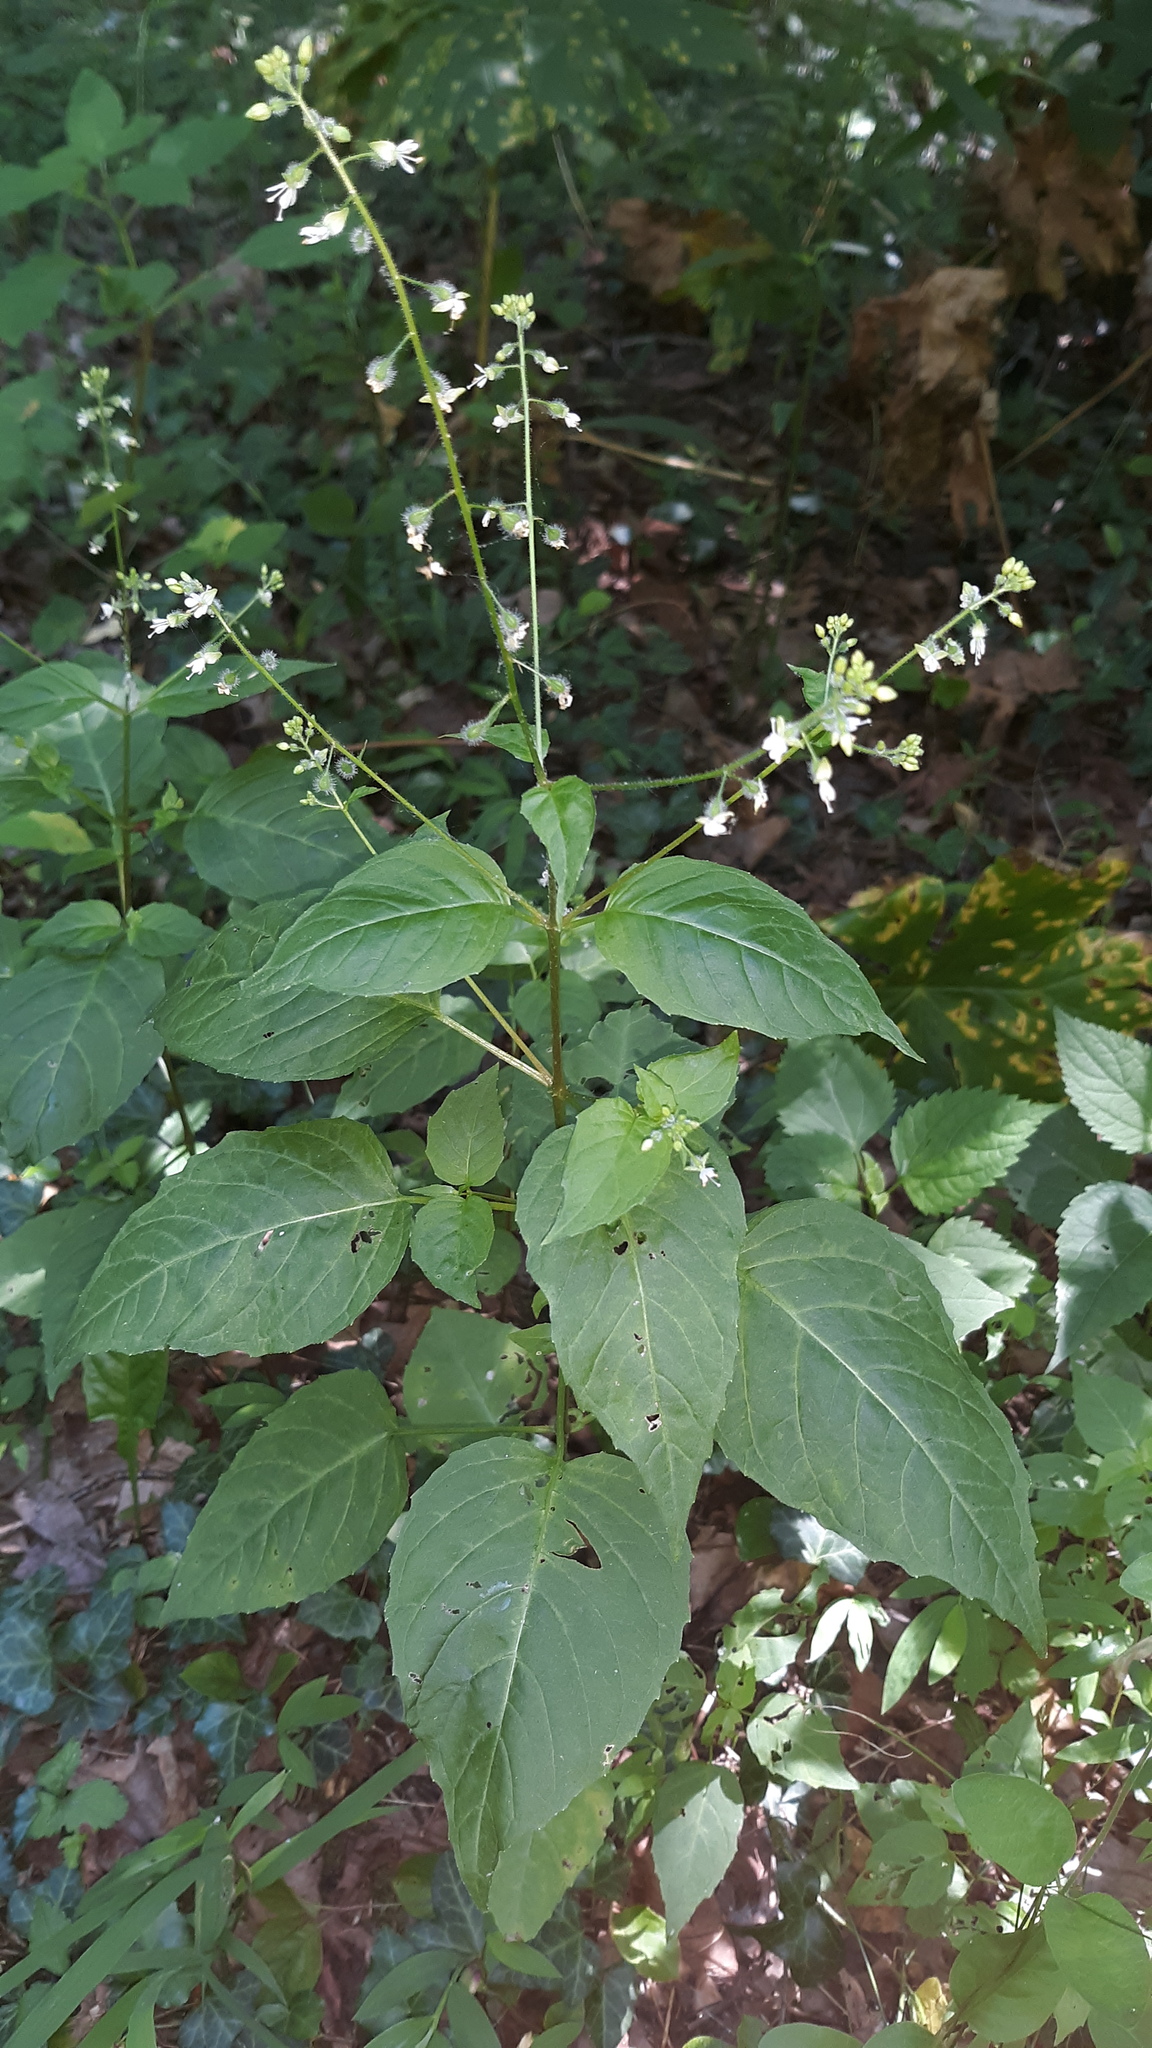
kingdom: Plantae
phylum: Tracheophyta
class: Magnoliopsida
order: Myrtales
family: Onagraceae
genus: Circaea
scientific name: Circaea canadensis
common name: Broad-leaved enchanter's nightshade
